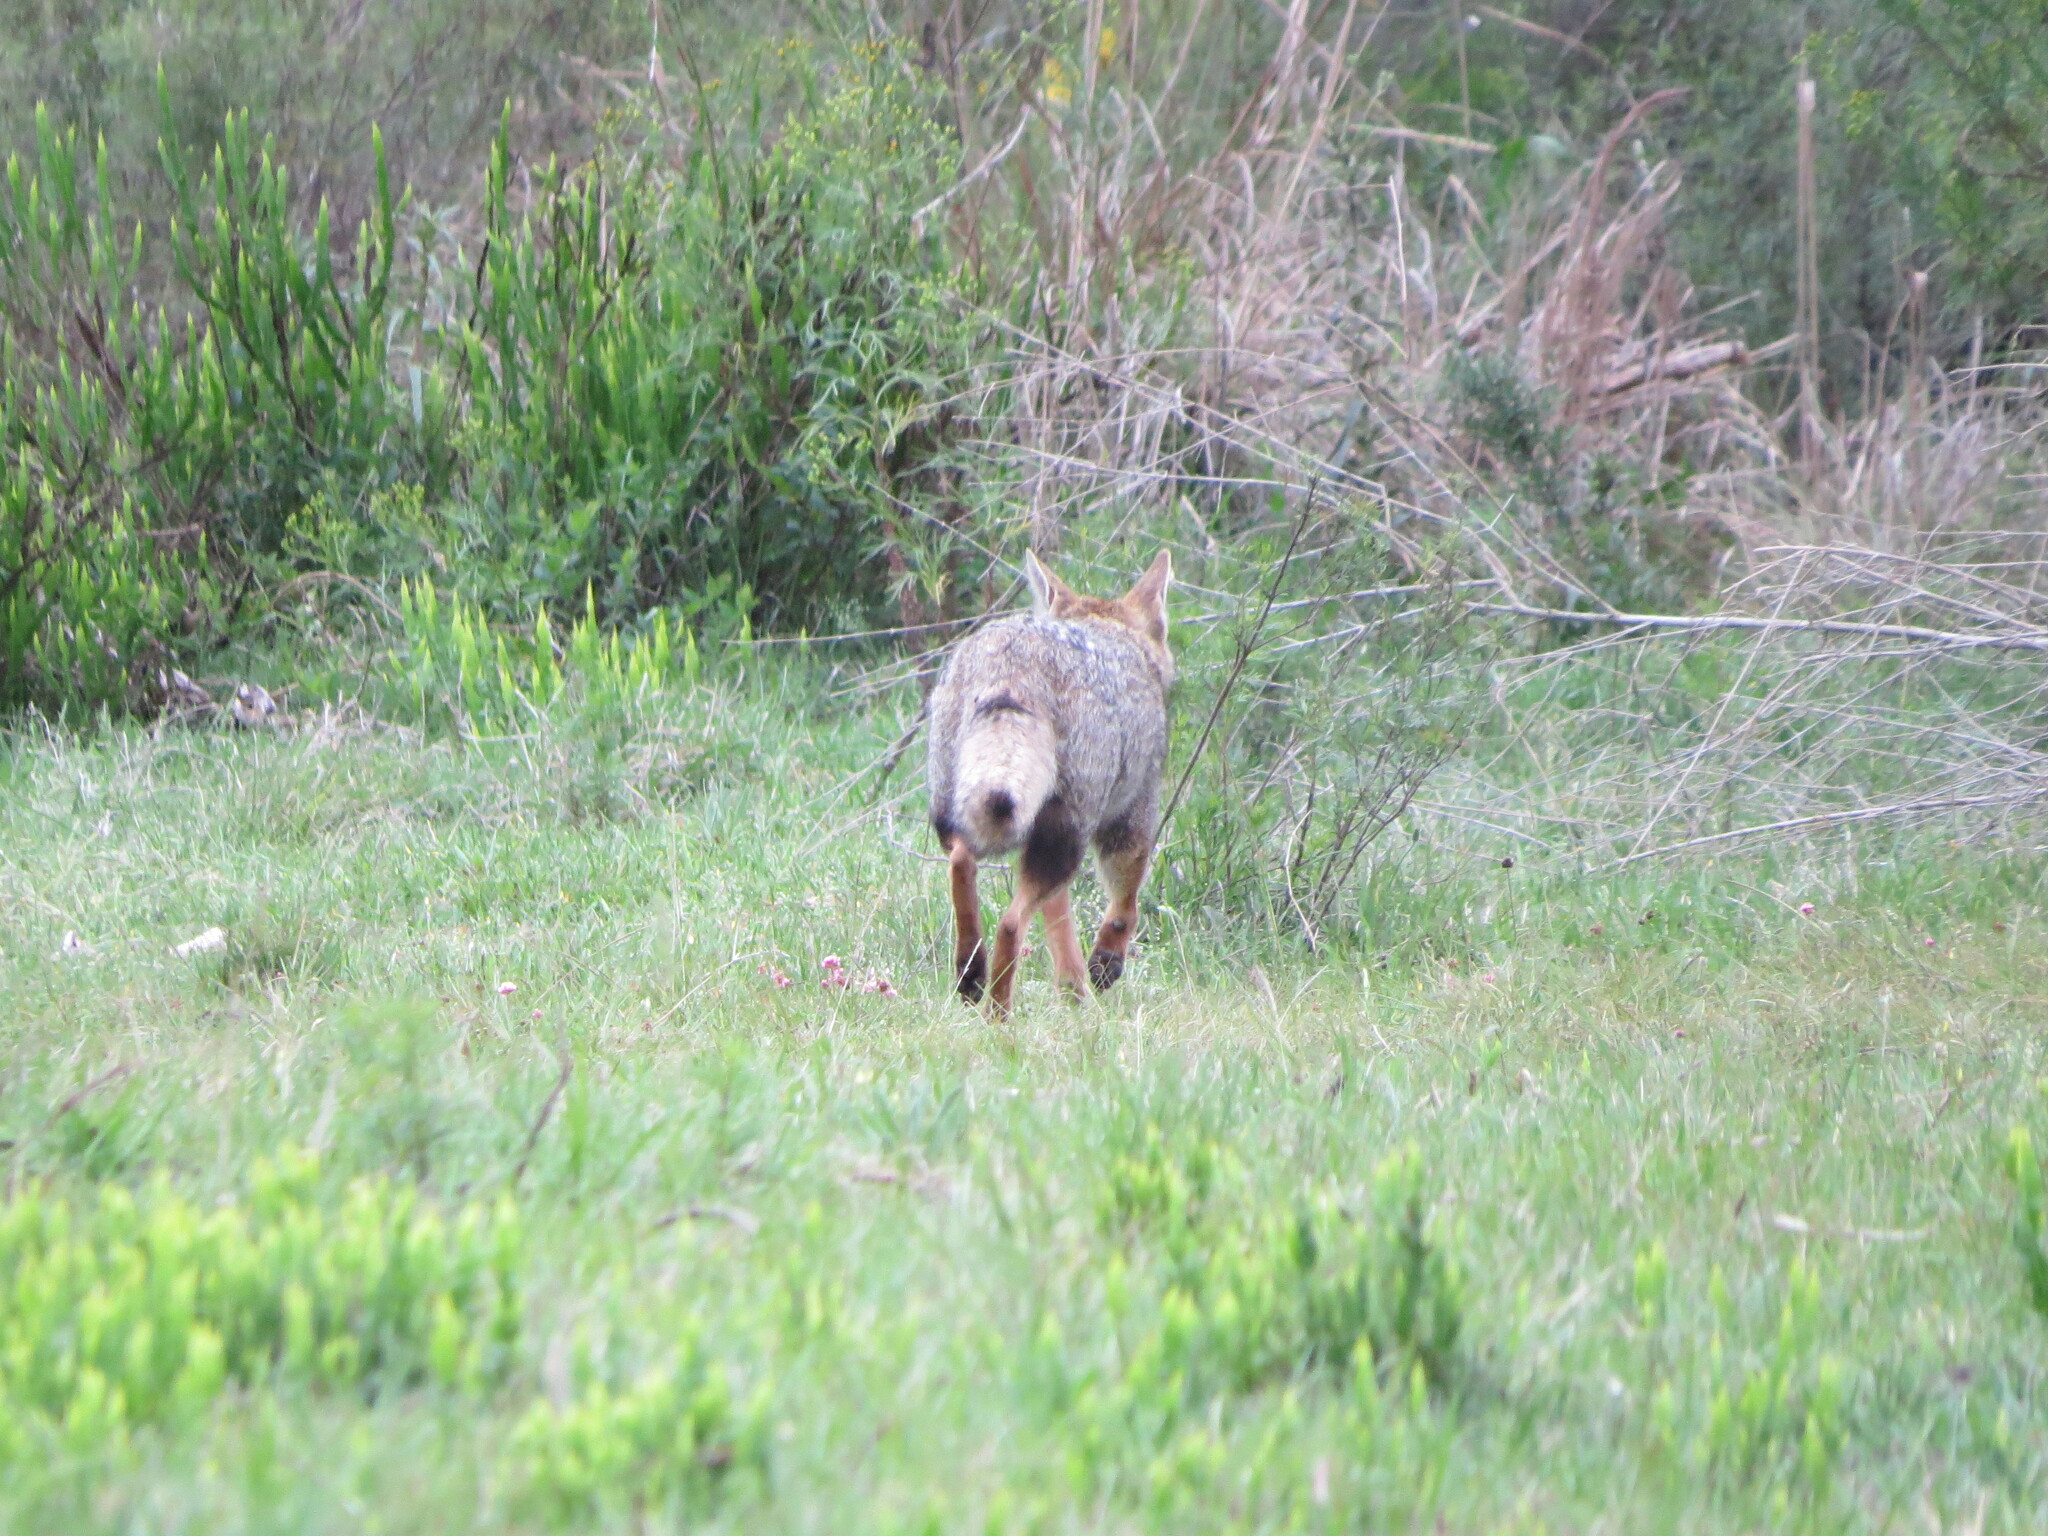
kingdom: Animalia
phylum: Chordata
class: Mammalia
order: Carnivora
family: Canidae
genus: Lycalopex
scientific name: Lycalopex gymnocercus
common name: Pampas fox
